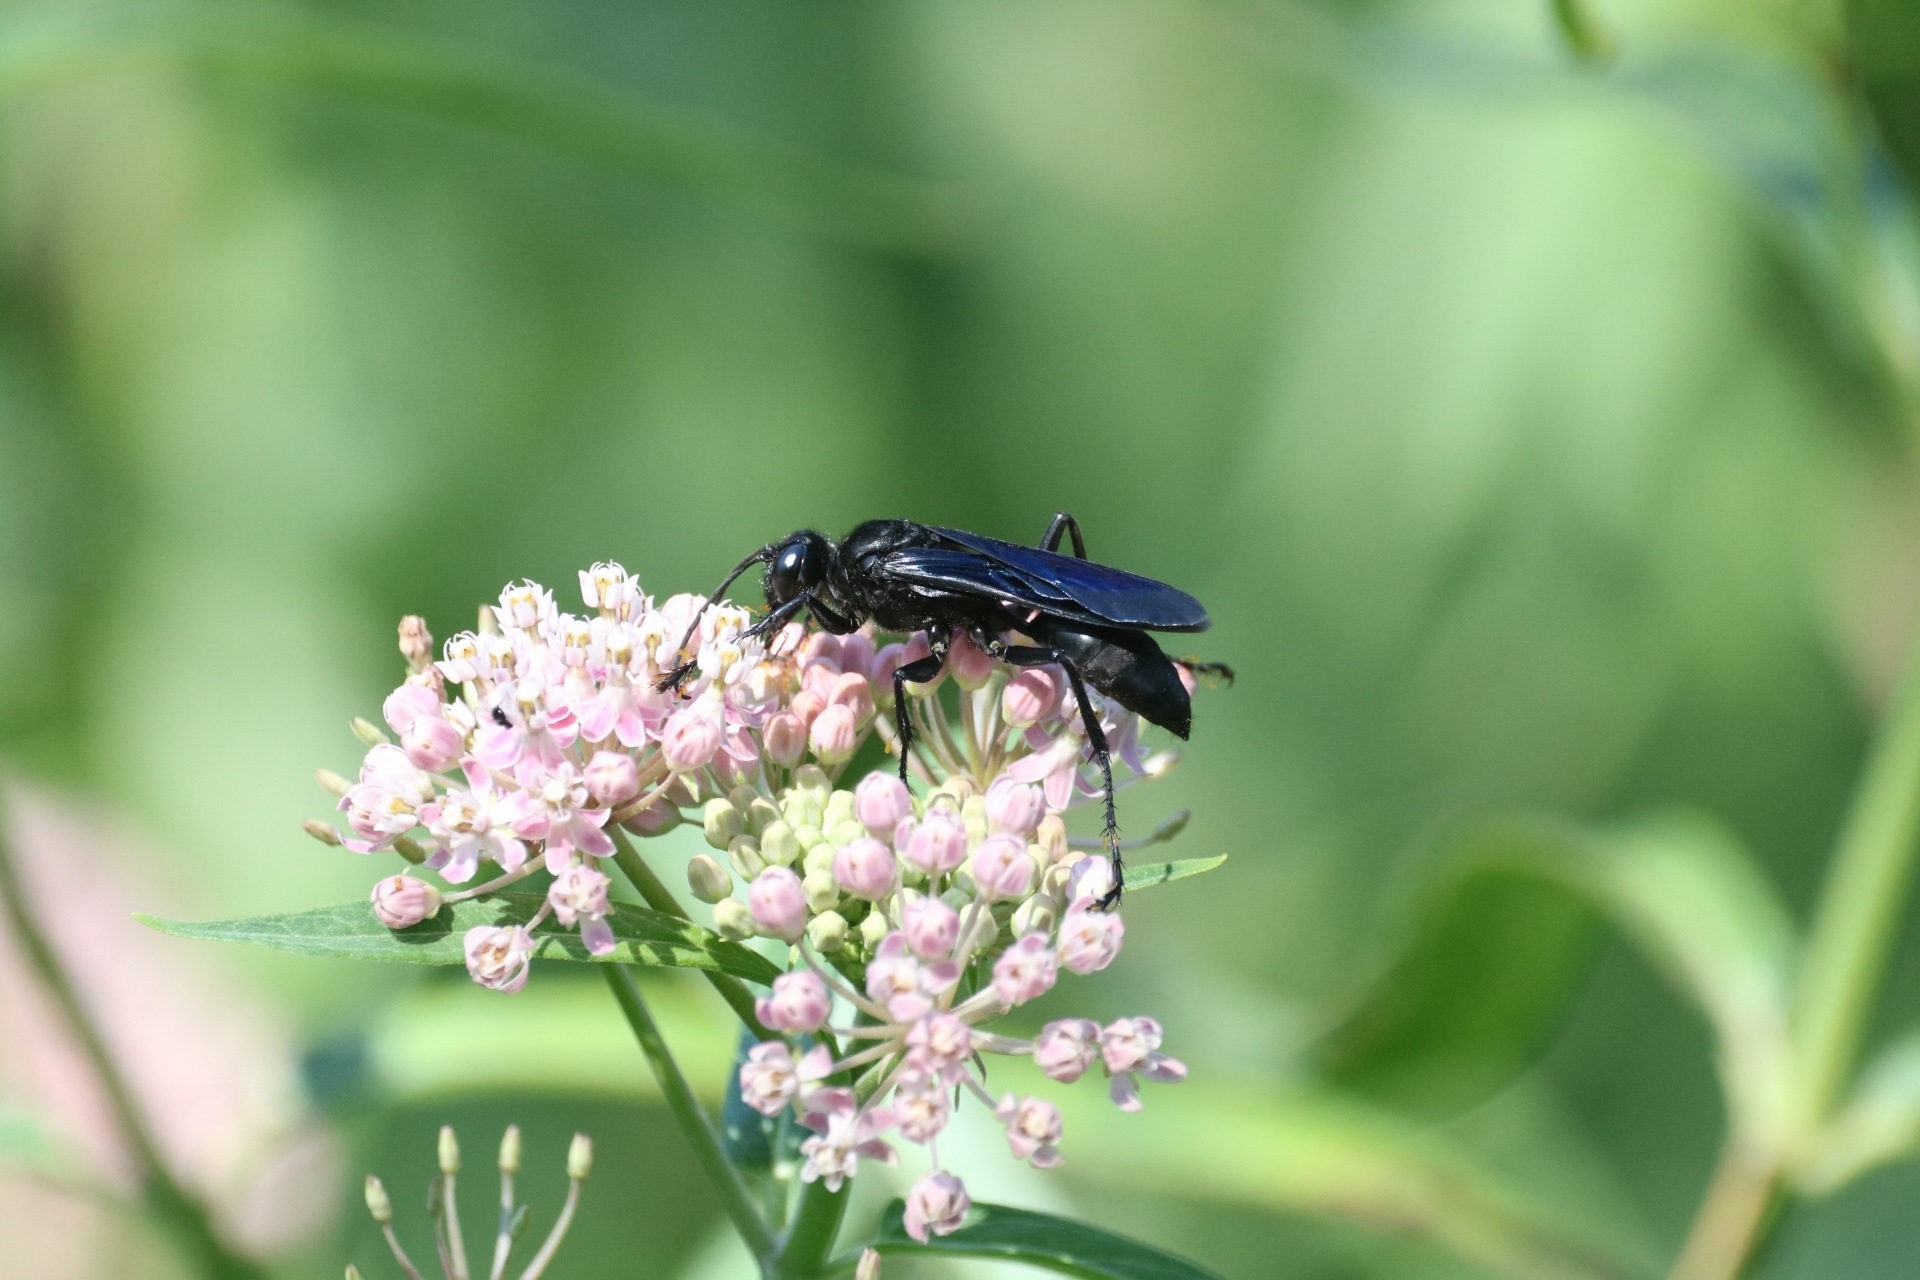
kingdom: Animalia
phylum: Arthropoda
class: Insecta
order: Hymenoptera
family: Sphecidae
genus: Sphex
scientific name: Sphex pensylvanicus
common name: Great black digger wasp
